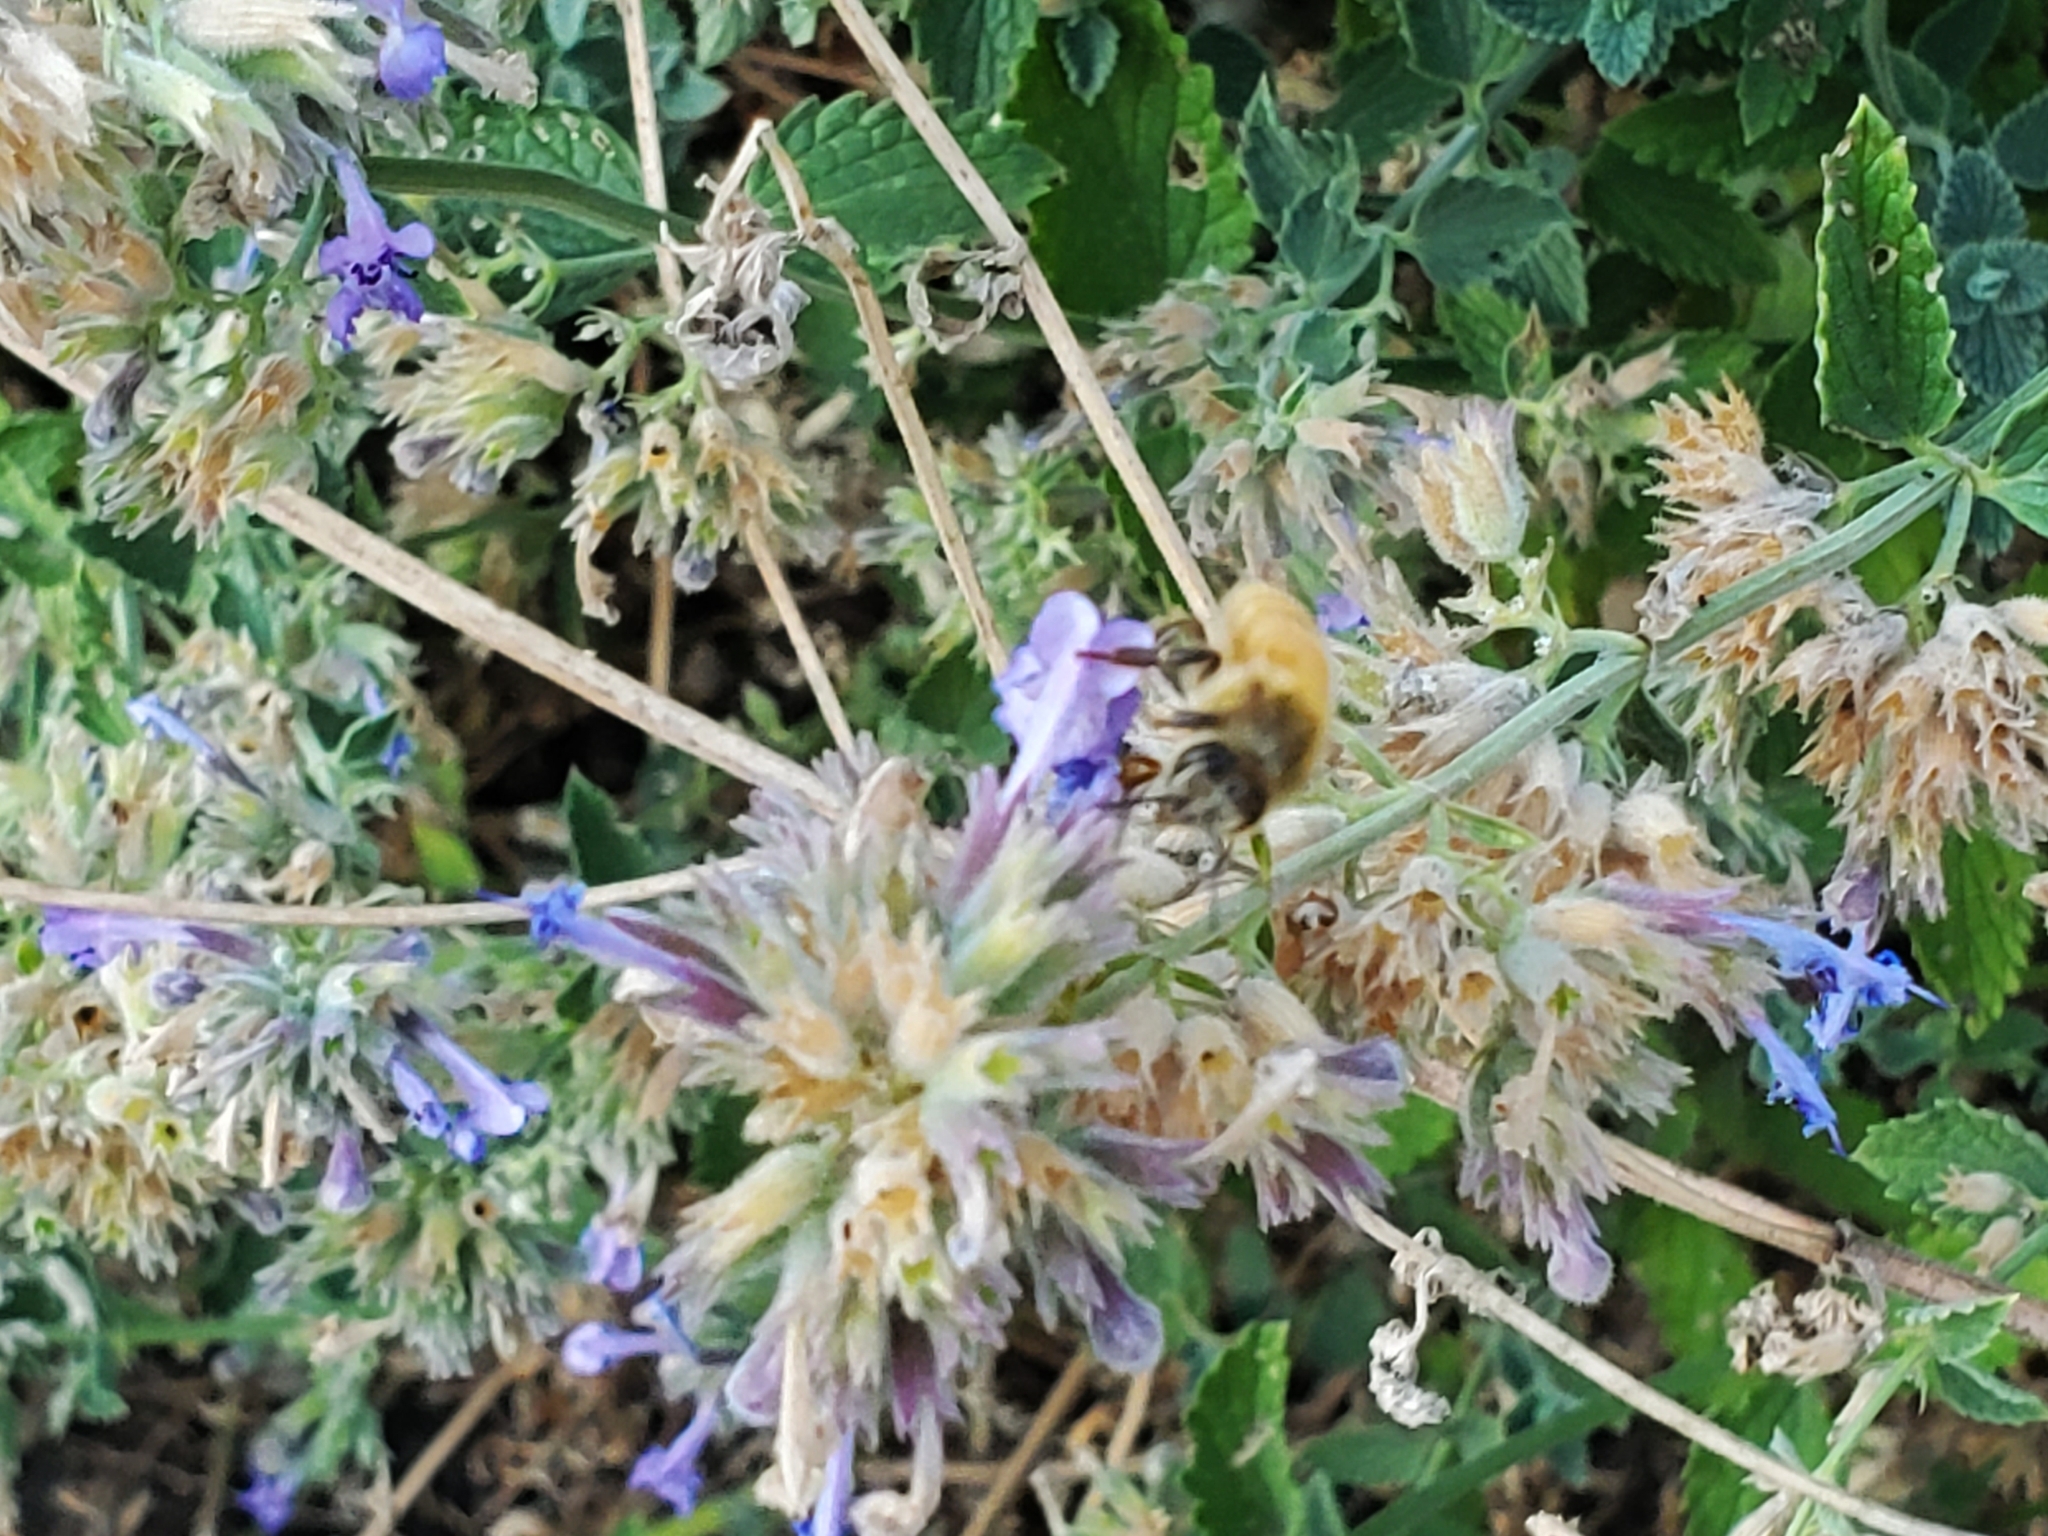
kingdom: Animalia
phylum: Arthropoda
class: Insecta
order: Hymenoptera
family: Apidae
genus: Apis
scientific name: Apis mellifera
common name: Honey bee
